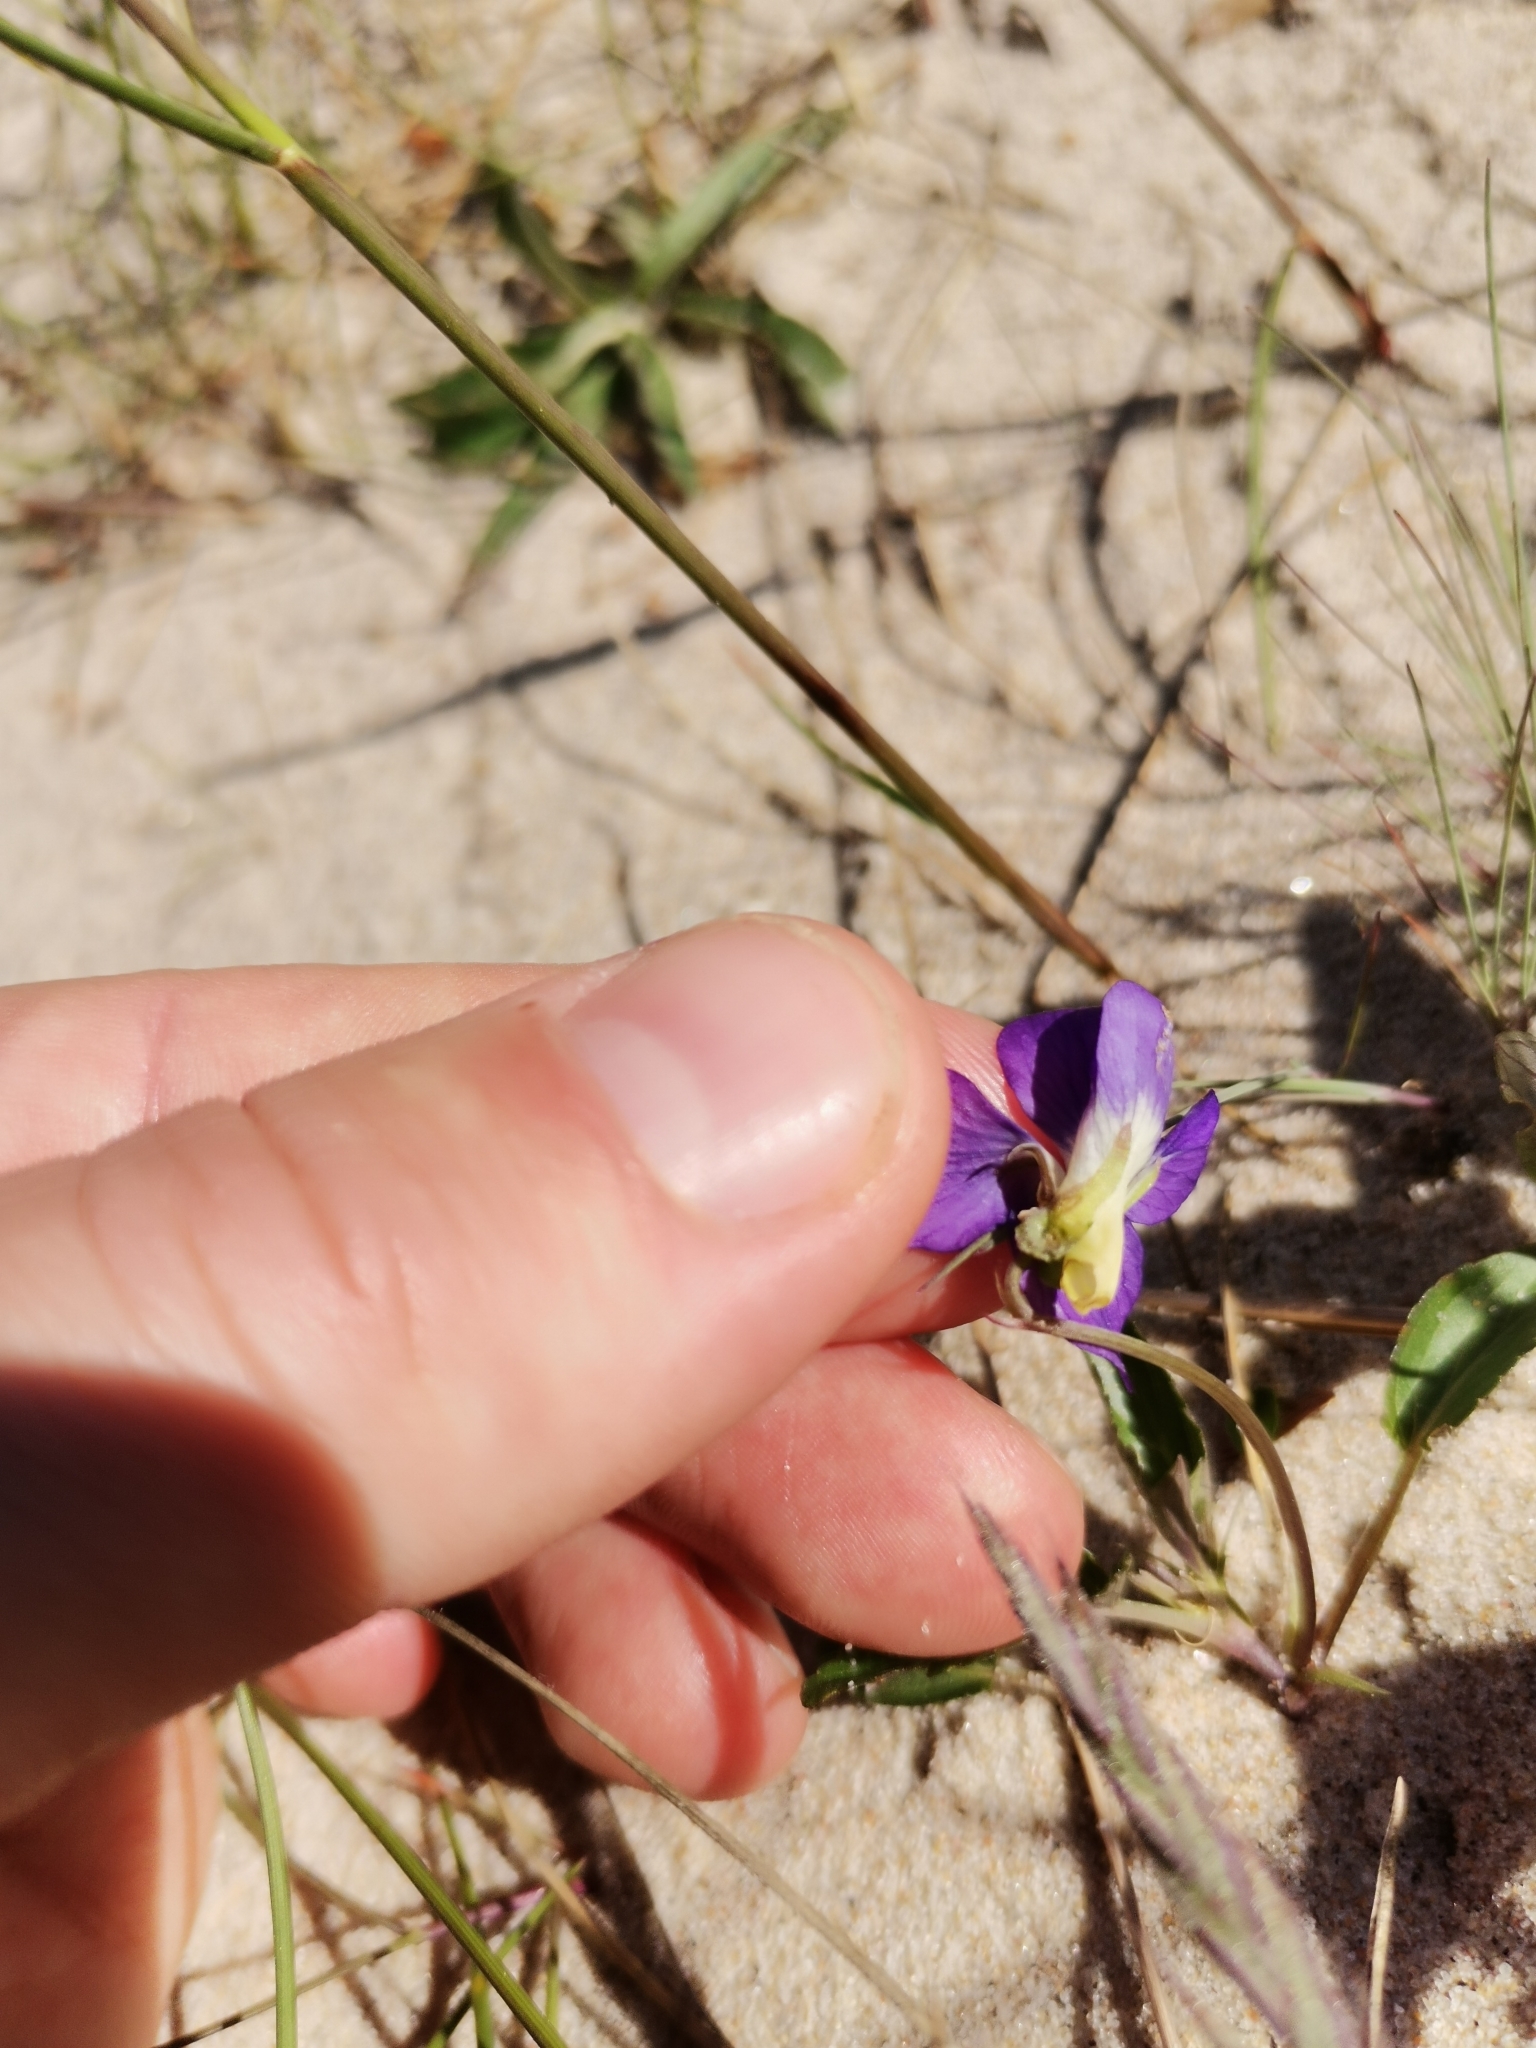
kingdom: Plantae
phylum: Tracheophyta
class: Magnoliopsida
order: Malpighiales
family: Violaceae
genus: Viola
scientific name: Viola tricolor
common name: Pansy
